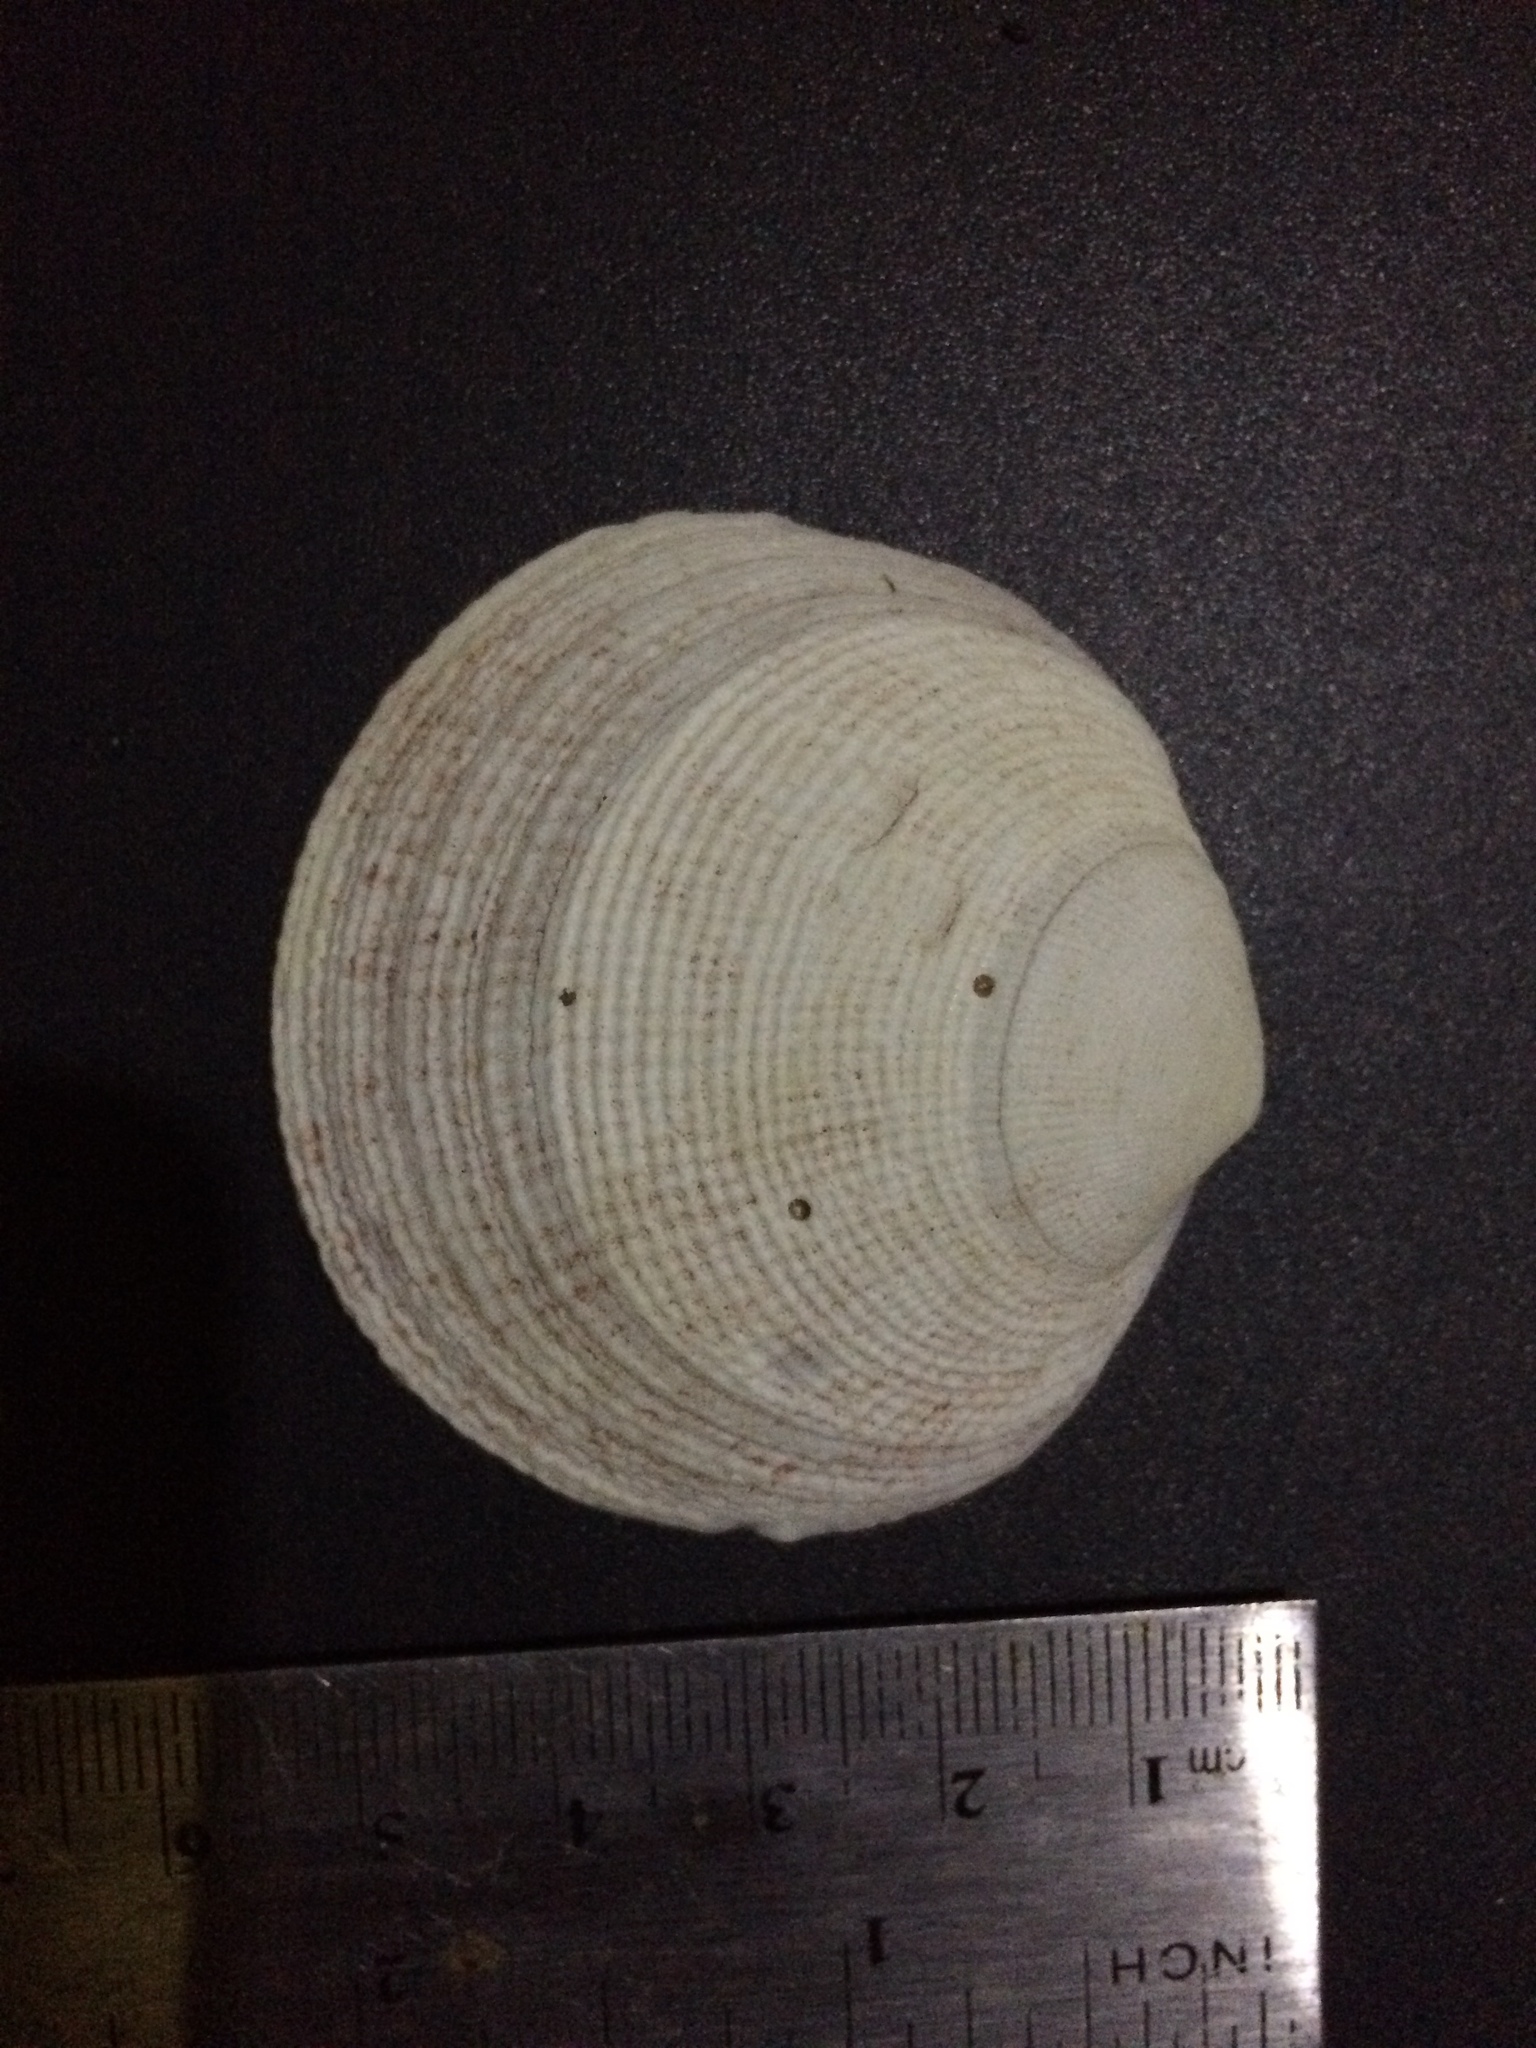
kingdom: Animalia
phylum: Mollusca
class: Bivalvia
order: Lucinida
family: Lucinidae
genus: Codakia
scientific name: Codakia tigerina
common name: Pacific tiger lucine
